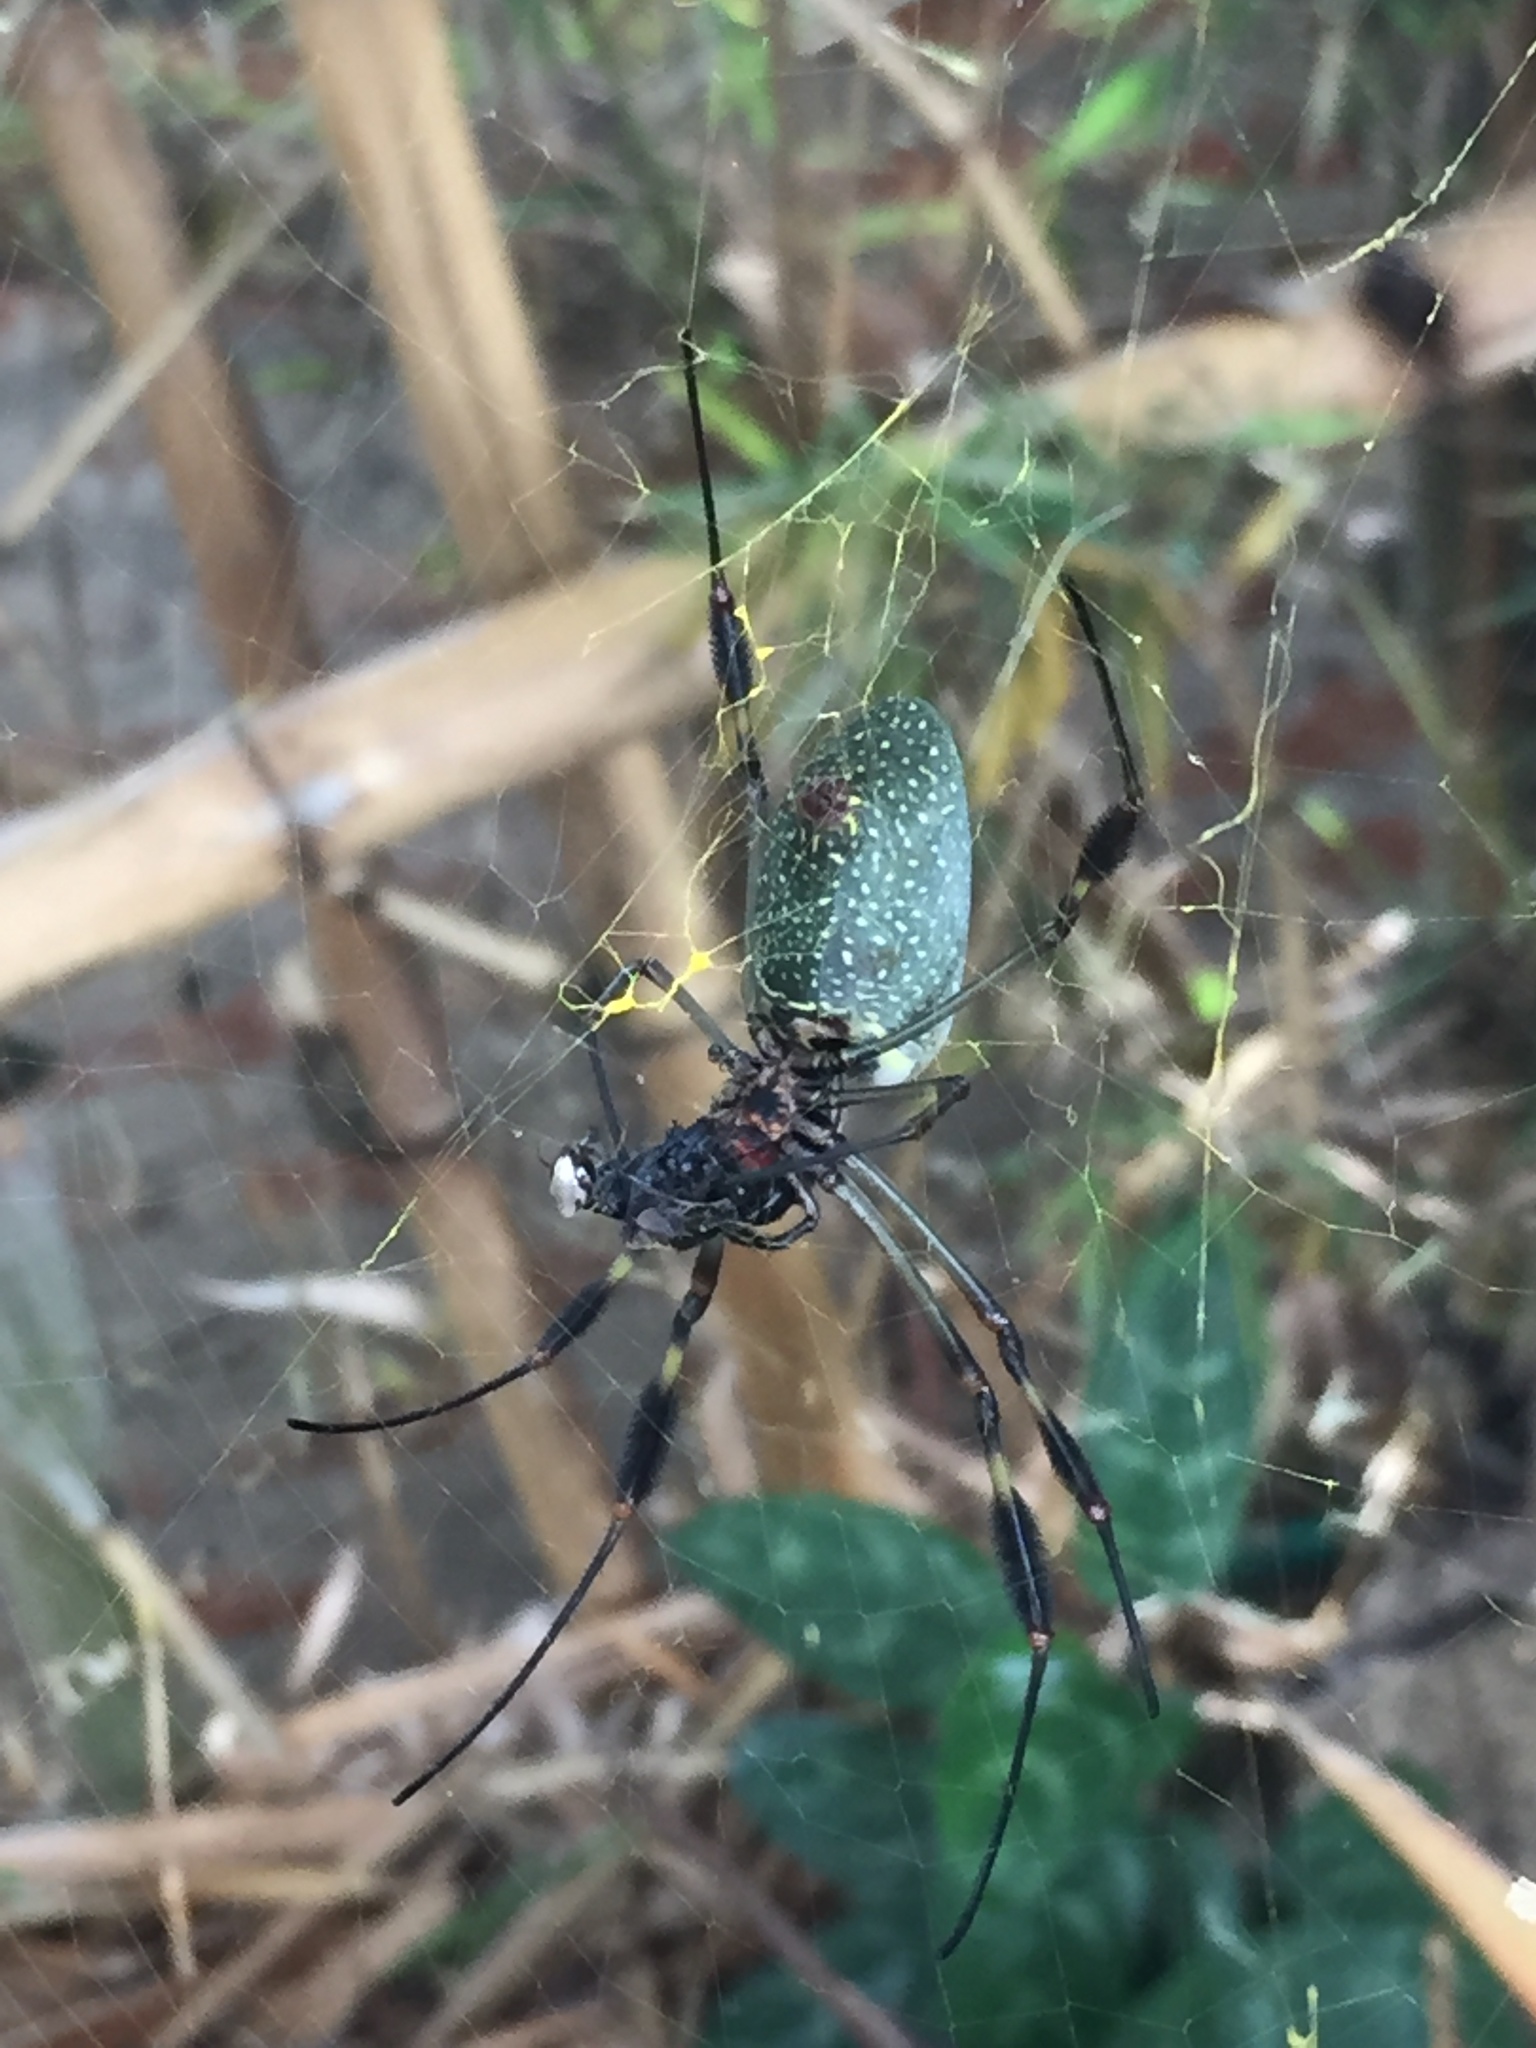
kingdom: Animalia
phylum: Arthropoda
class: Arachnida
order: Araneae
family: Araneidae
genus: Trichonephila
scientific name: Trichonephila clavipes
